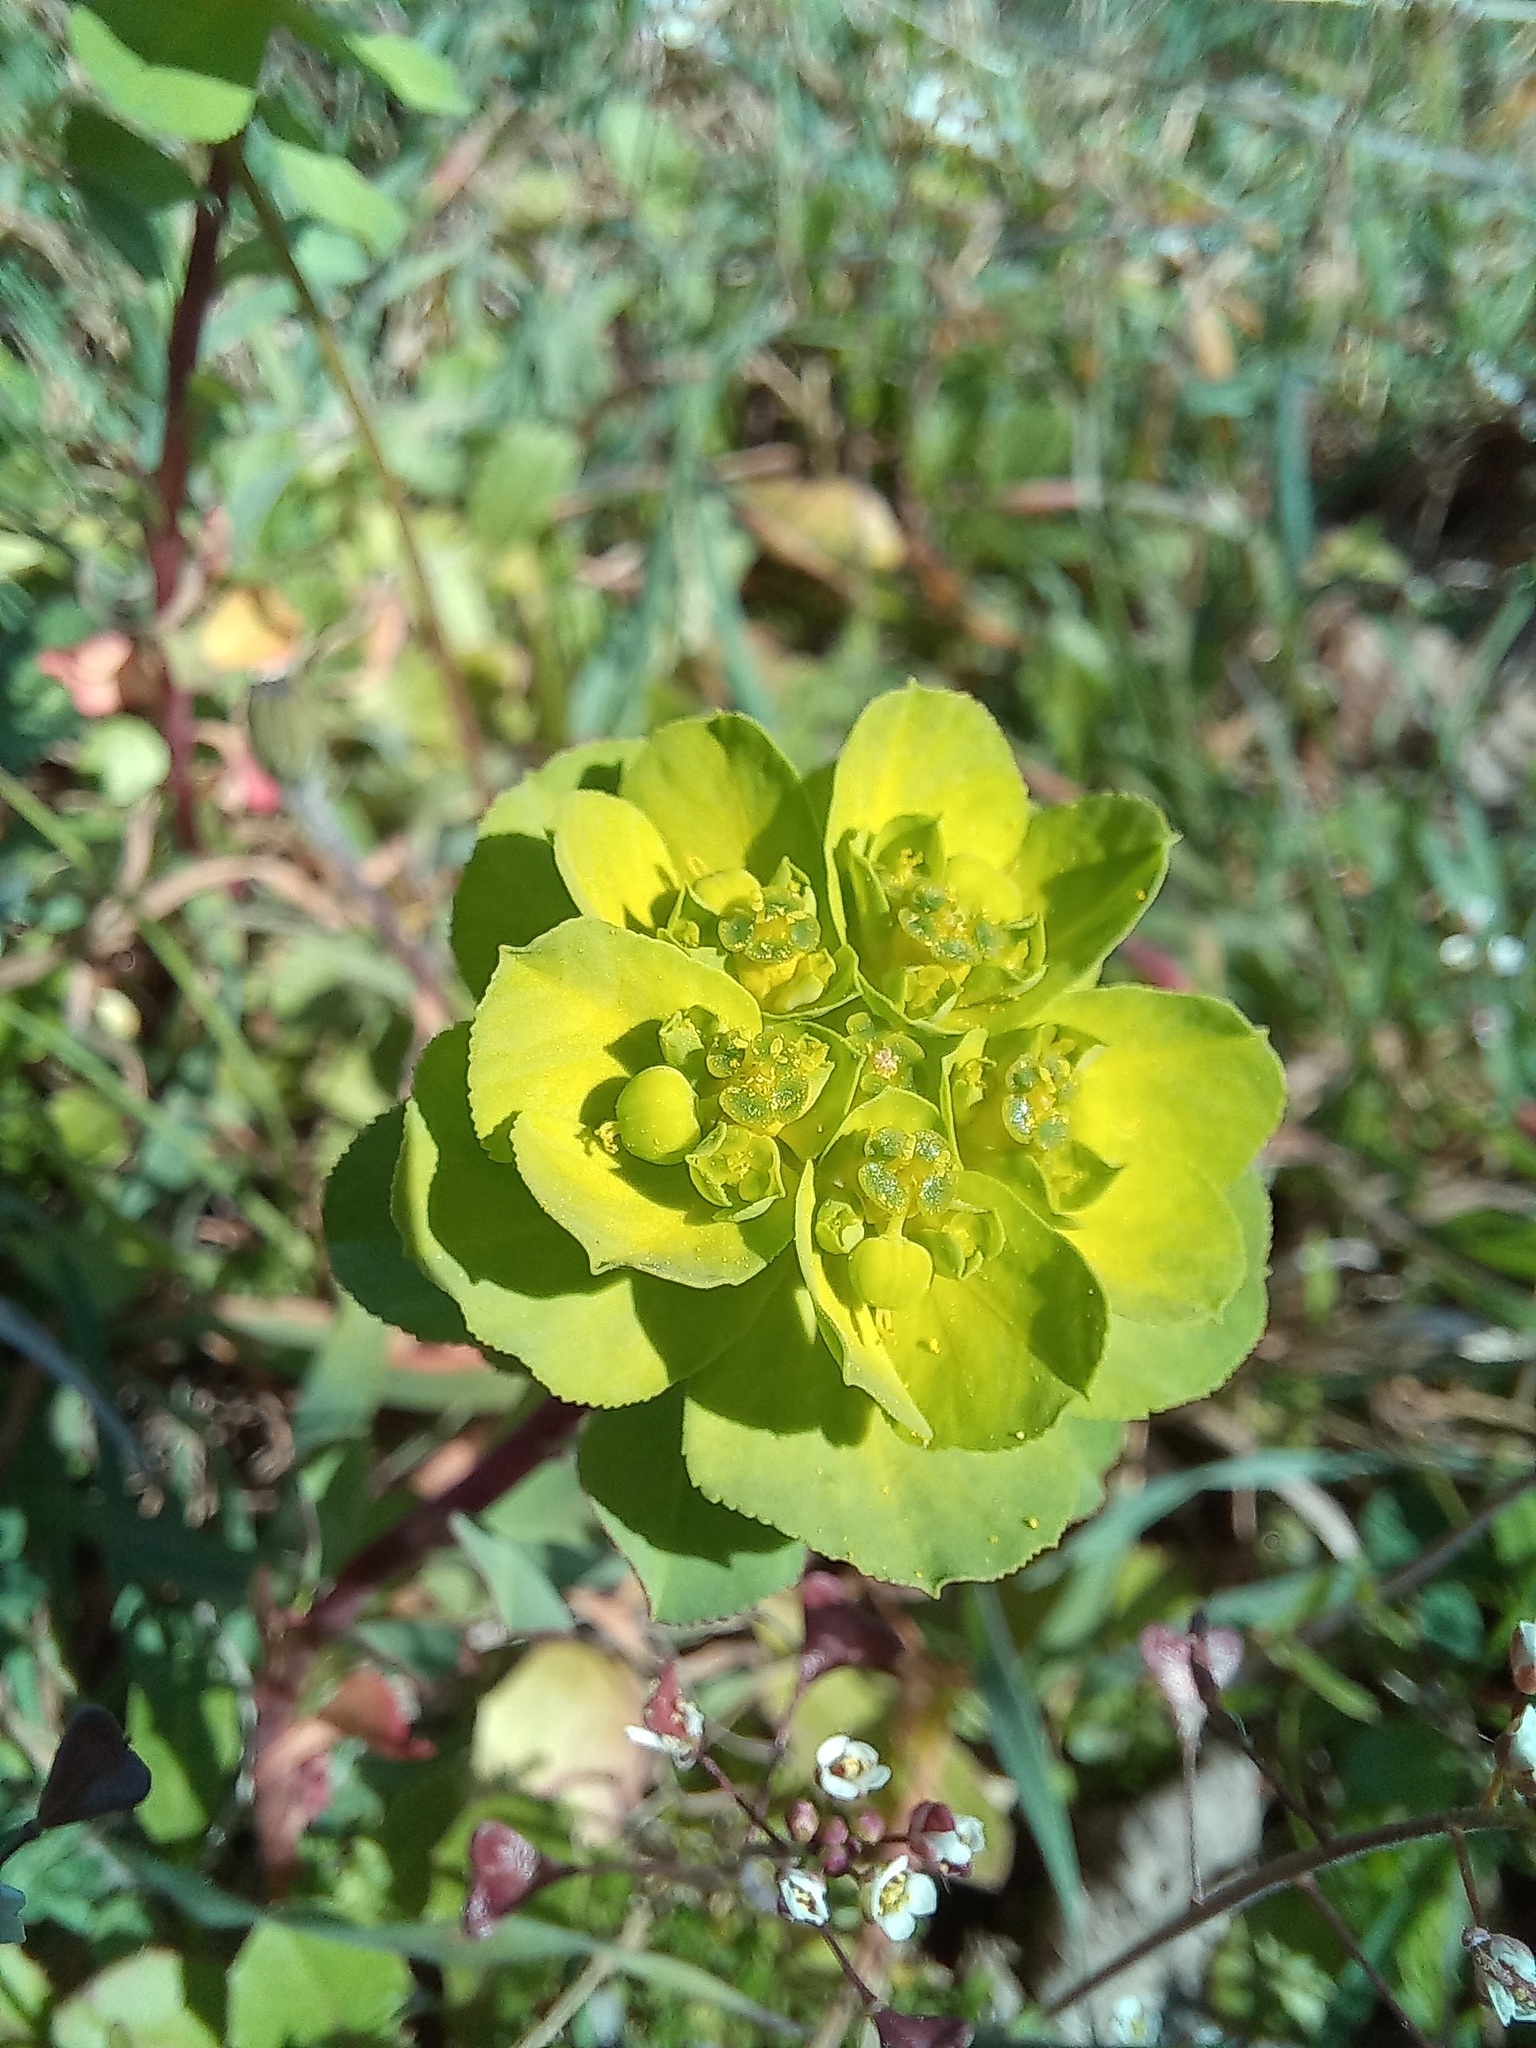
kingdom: Plantae
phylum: Tracheophyta
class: Magnoliopsida
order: Malpighiales
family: Euphorbiaceae
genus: Euphorbia
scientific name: Euphorbia helioscopia
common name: Sun spurge
